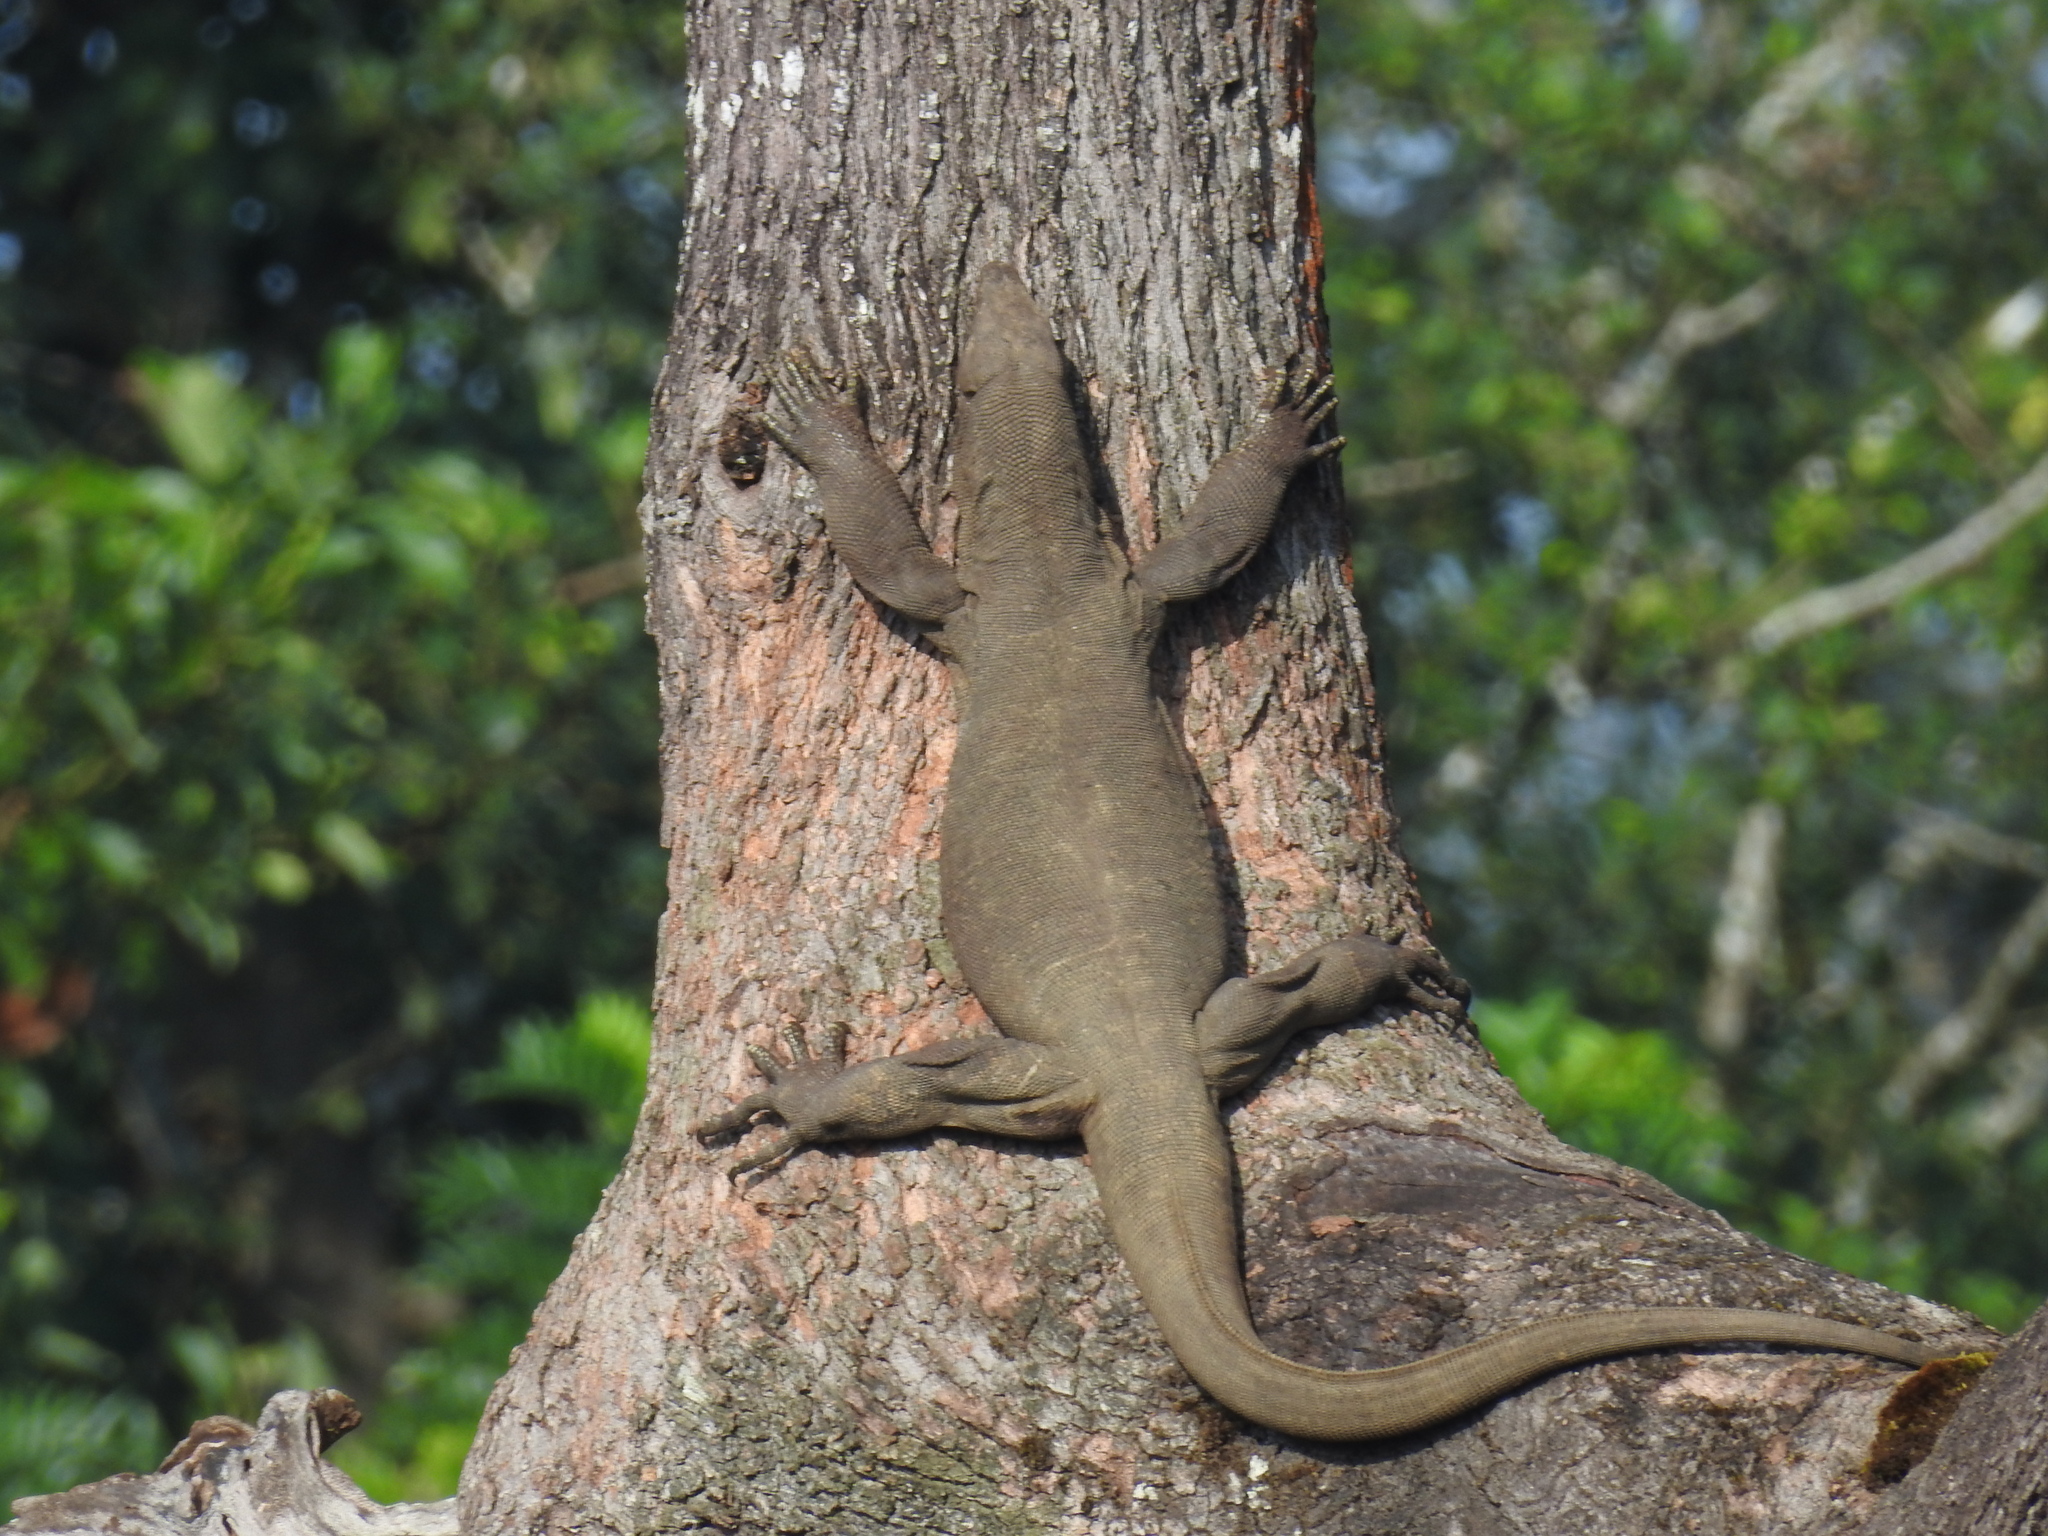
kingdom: Animalia
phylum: Chordata
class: Squamata
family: Varanidae
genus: Varanus
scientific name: Varanus bengalensis
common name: Bengal monitor
